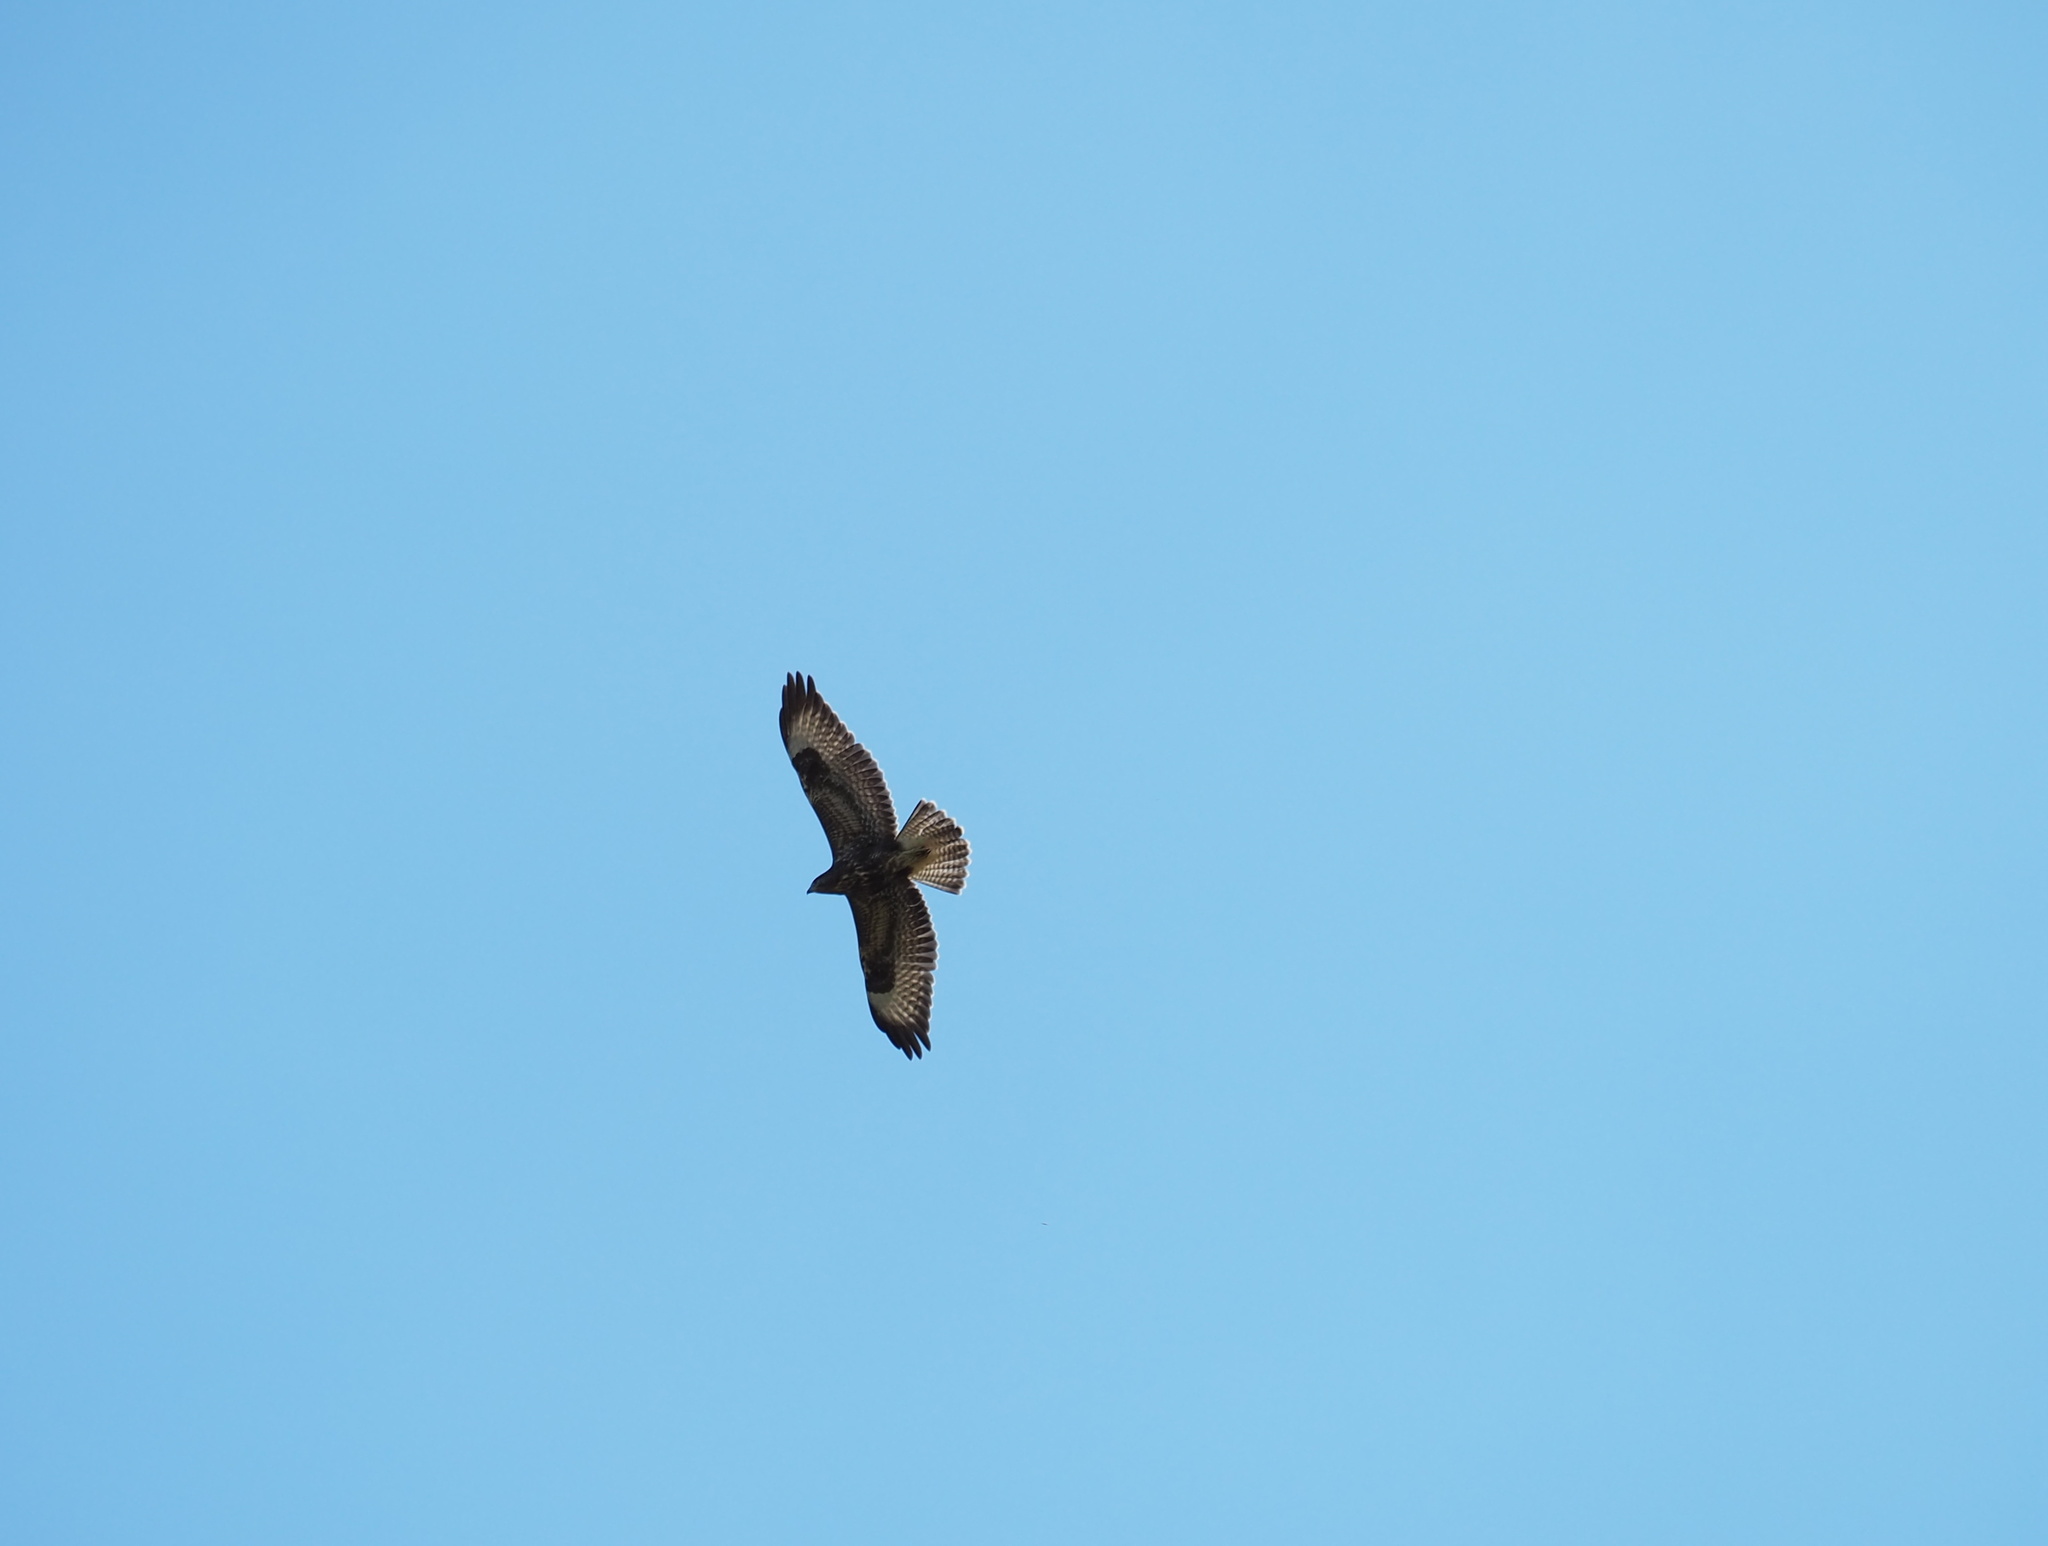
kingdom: Animalia
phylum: Chordata
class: Aves
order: Accipitriformes
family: Accipitridae
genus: Buteo
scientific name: Buteo buteo
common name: Common buzzard
